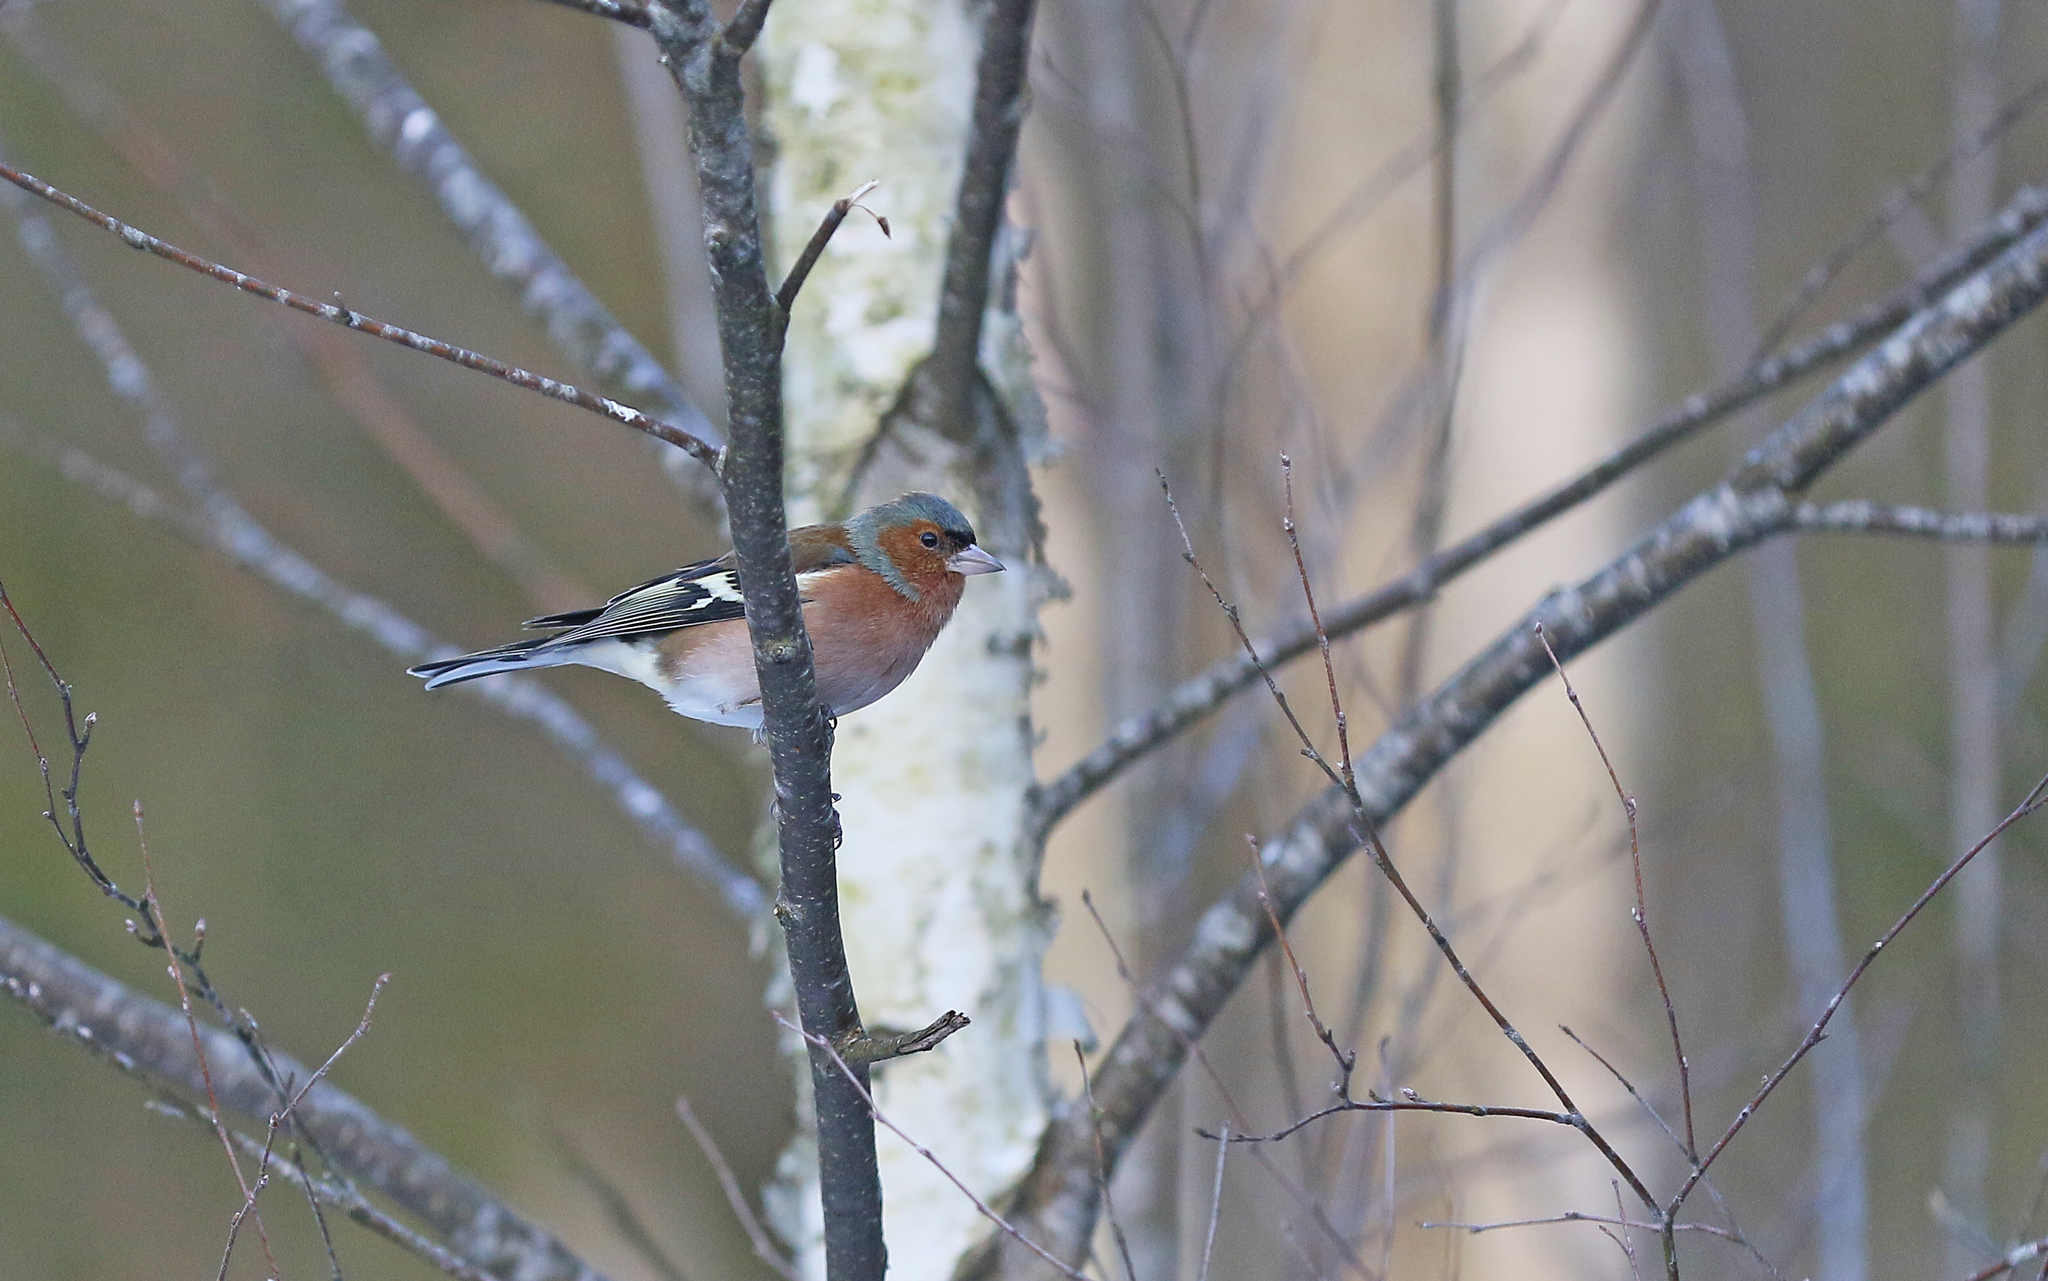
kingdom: Animalia
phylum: Chordata
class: Aves
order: Passeriformes
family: Fringillidae
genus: Fringilla
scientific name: Fringilla coelebs
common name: Common chaffinch
